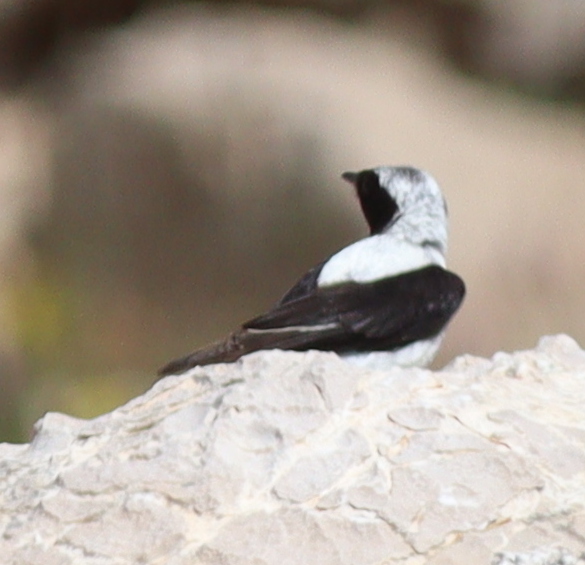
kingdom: Animalia
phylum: Chordata
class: Aves
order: Passeriformes
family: Muscicapidae
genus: Oenanthe
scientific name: Oenanthe hispanica
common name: Black-eared wheatear
